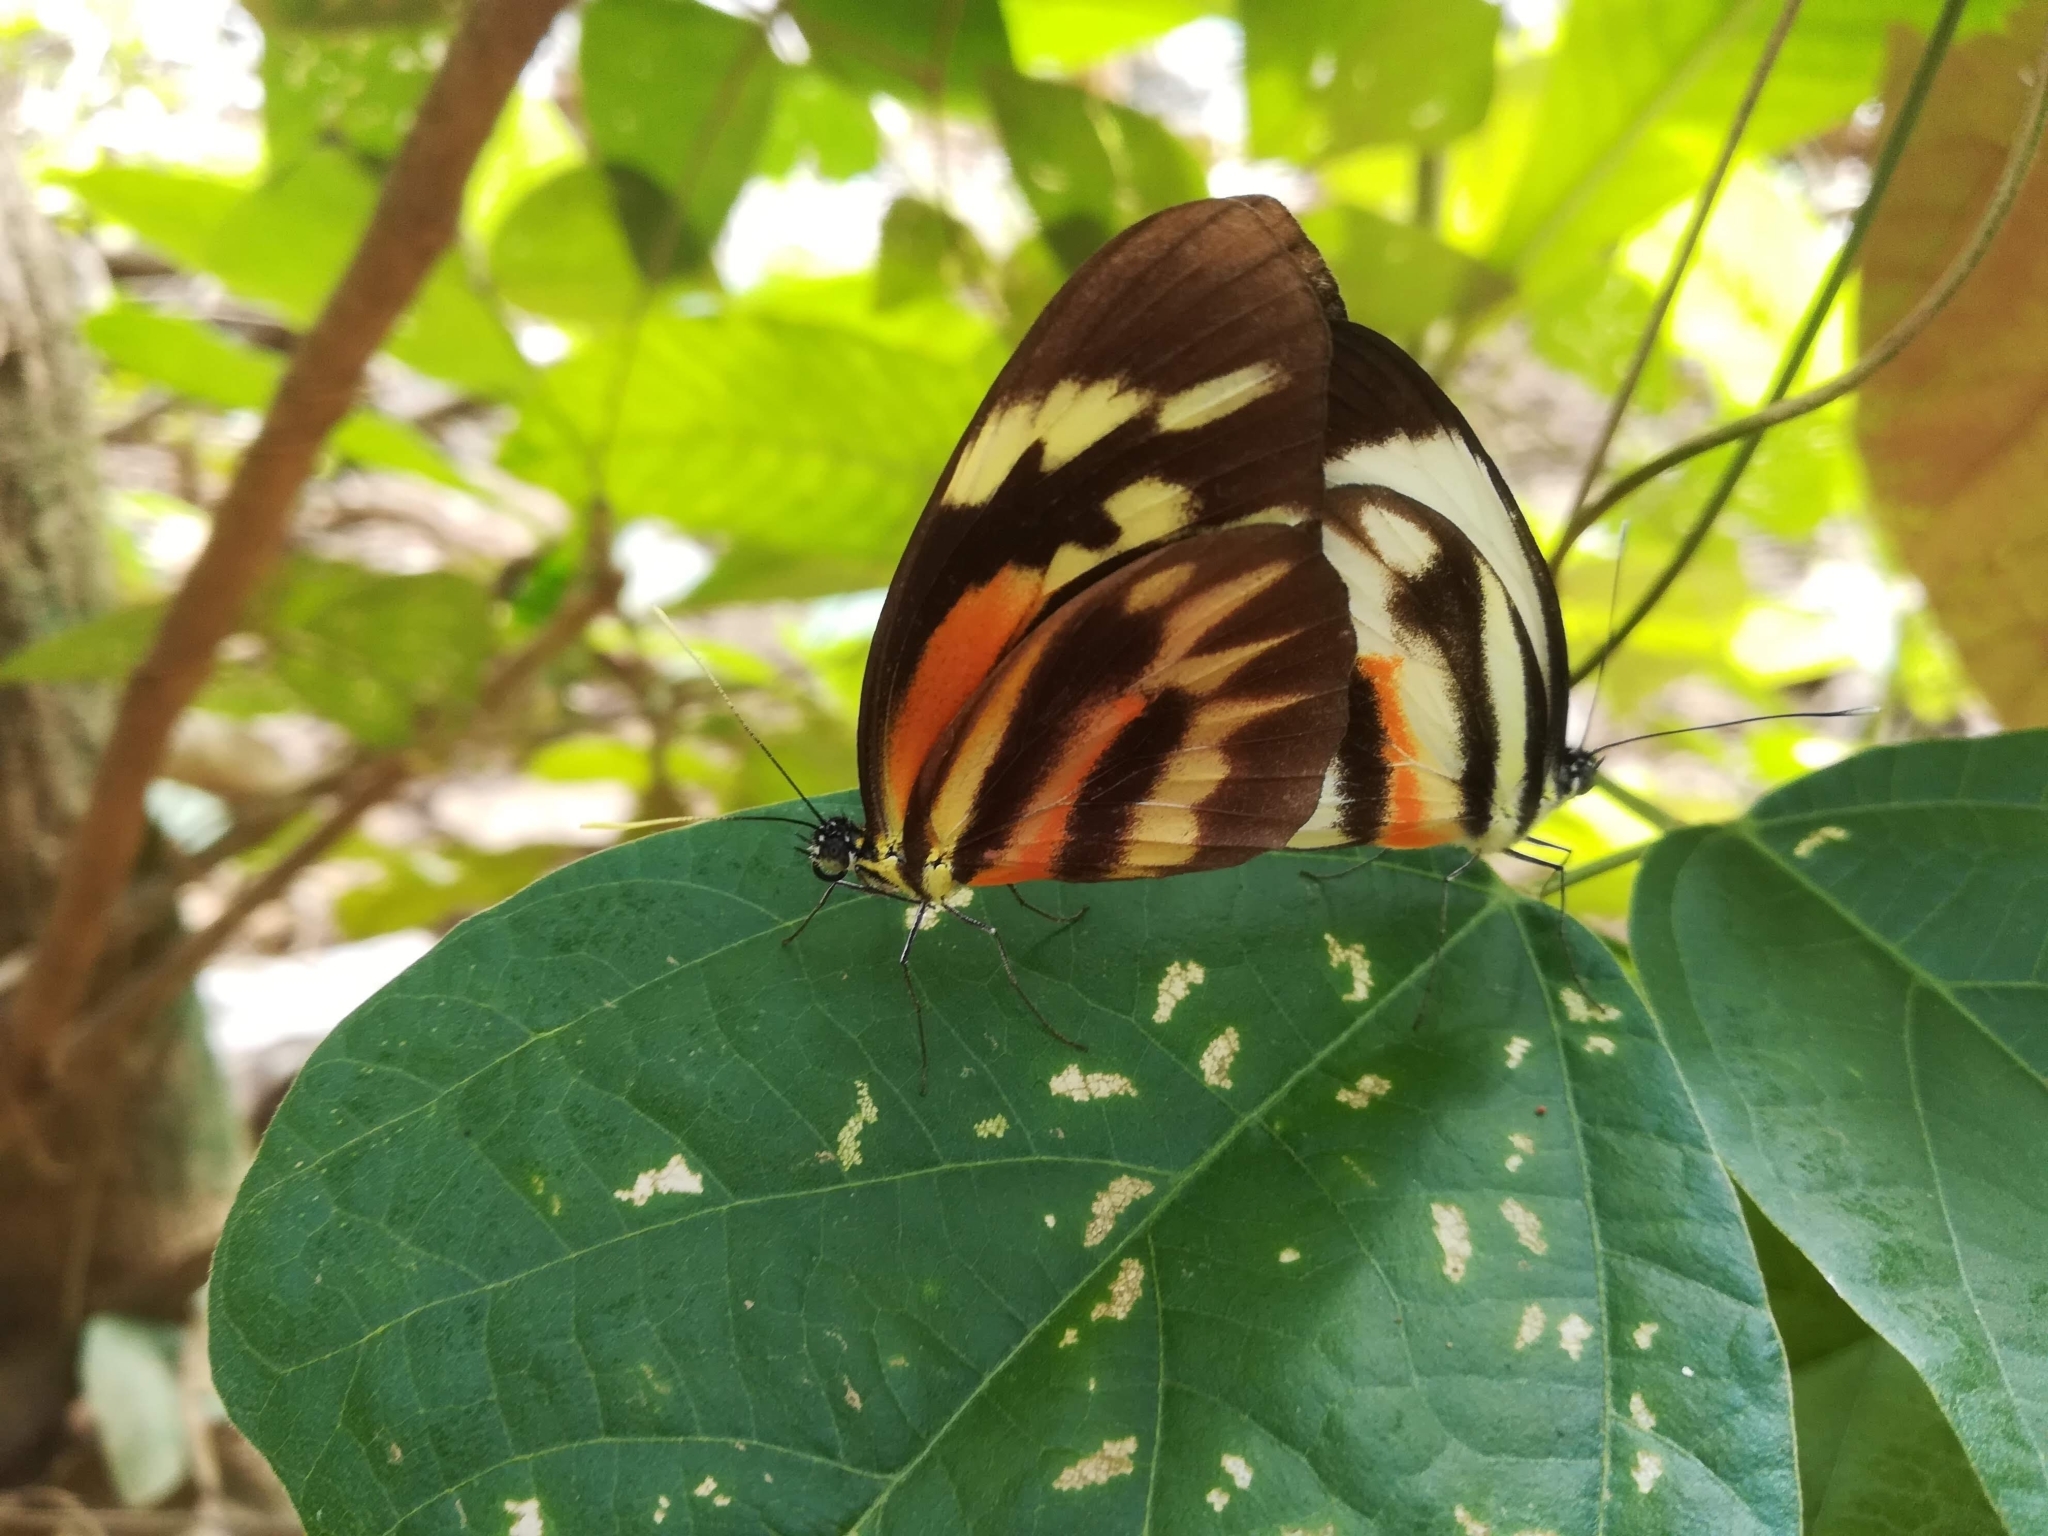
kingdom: Animalia
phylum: Arthropoda
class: Insecta
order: Lepidoptera
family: Pieridae
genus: Perrhybris
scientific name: Perrhybris pamela
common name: Chiapas white
